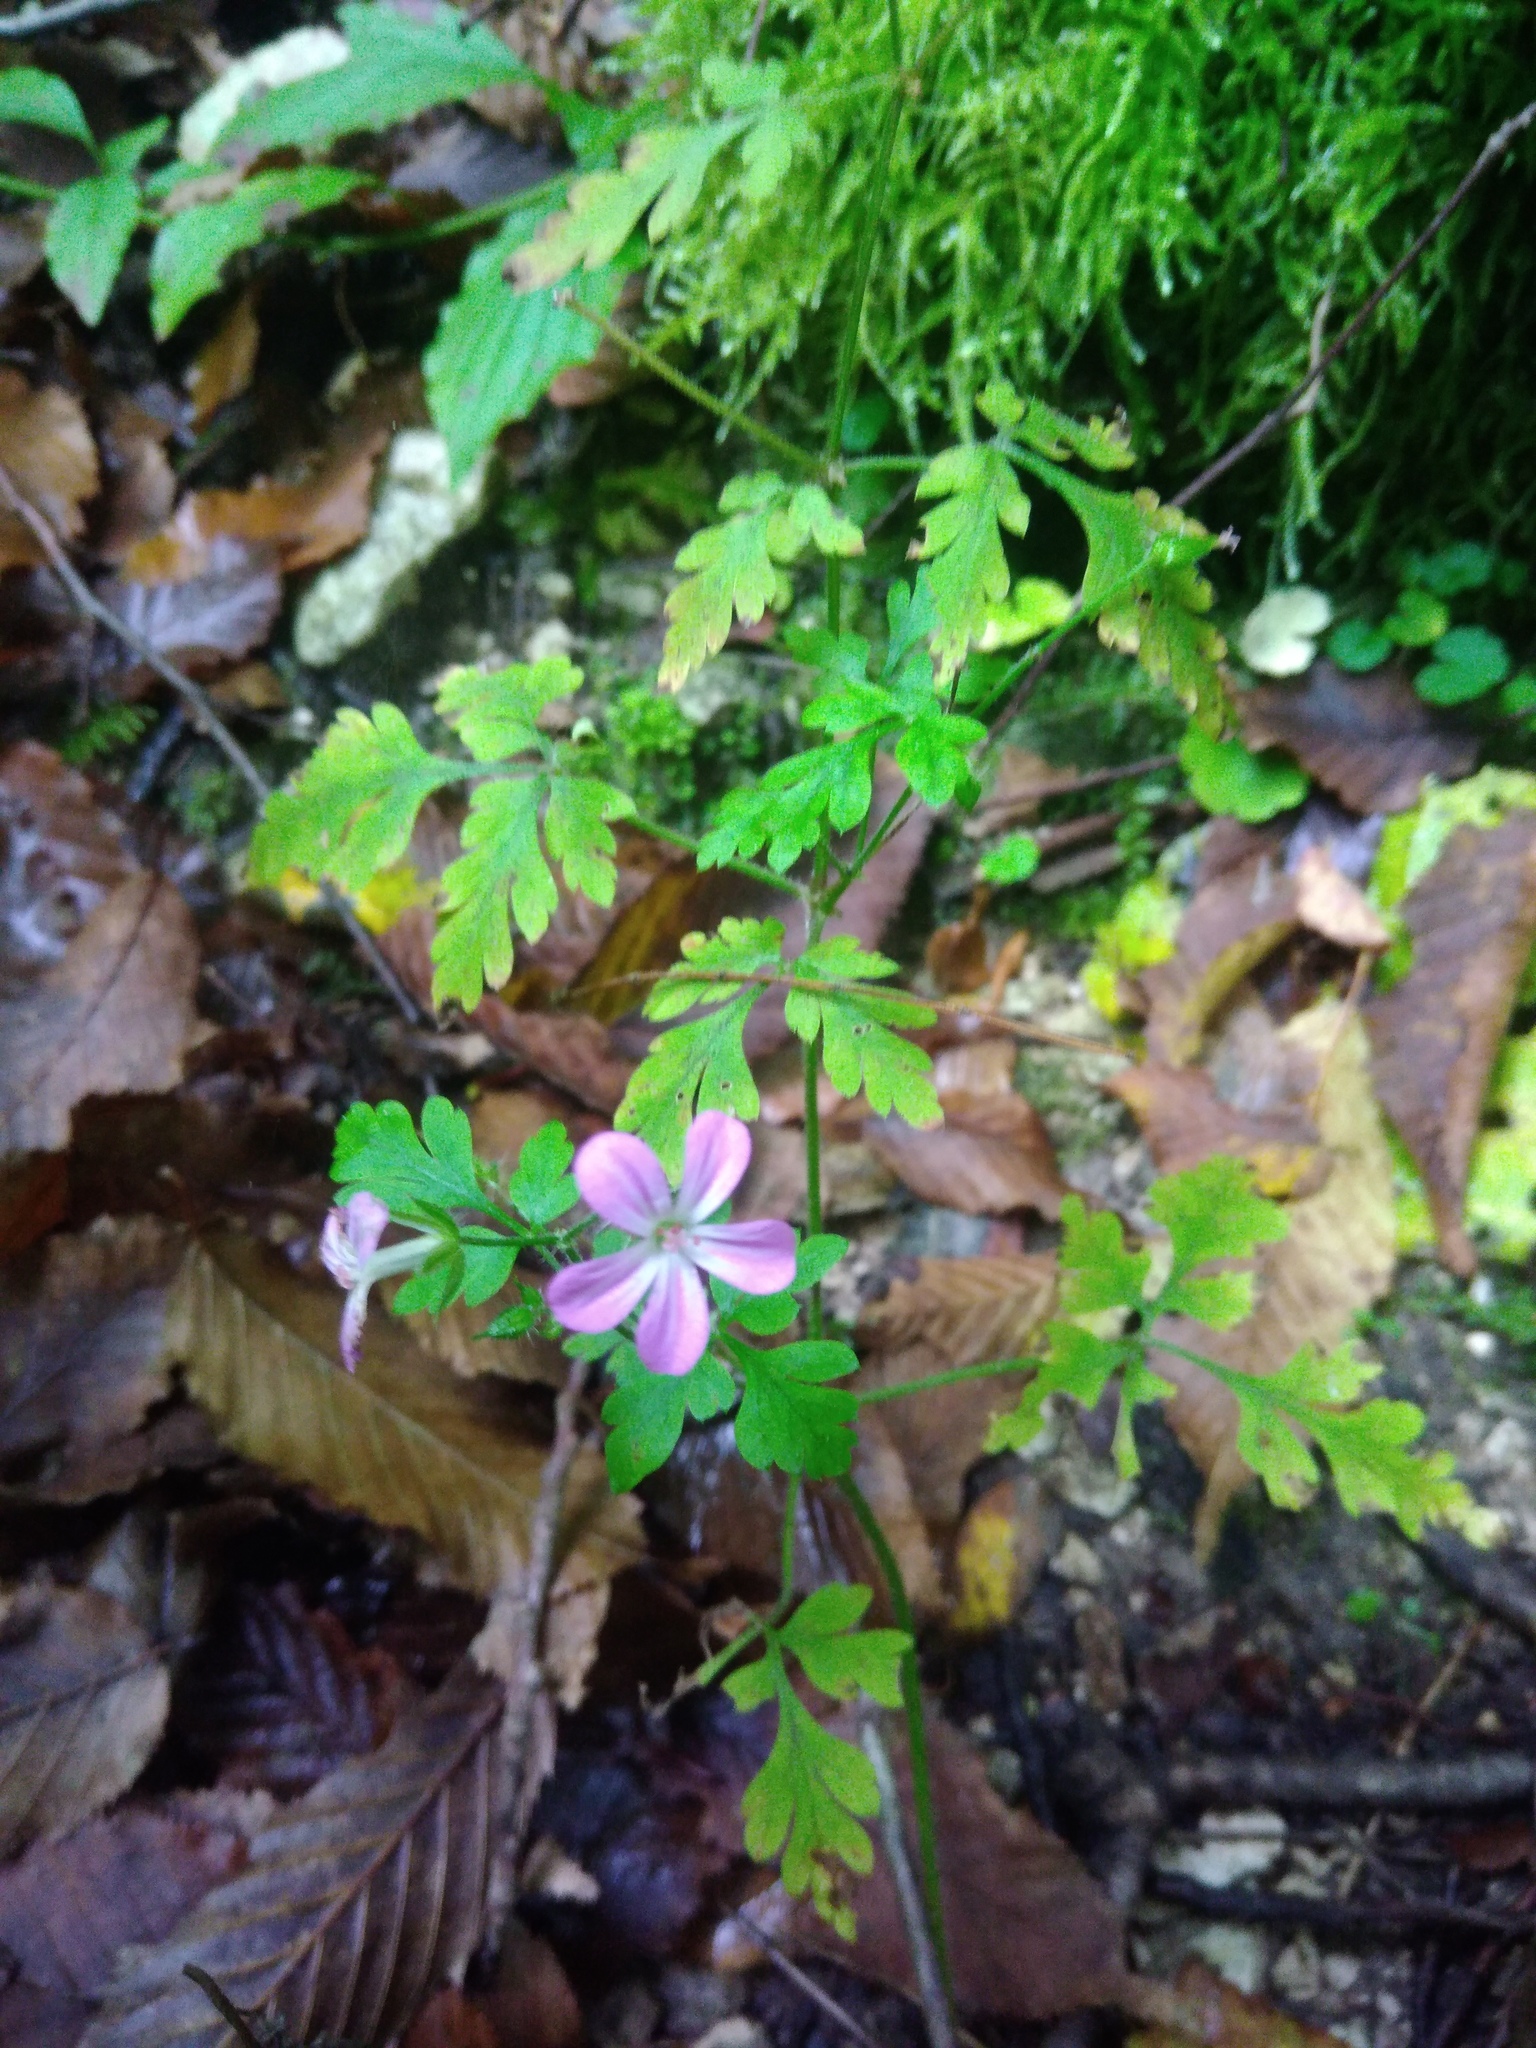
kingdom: Plantae
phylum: Tracheophyta
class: Magnoliopsida
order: Geraniales
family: Geraniaceae
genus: Geranium
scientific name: Geranium robertianum
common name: Herb-robert
